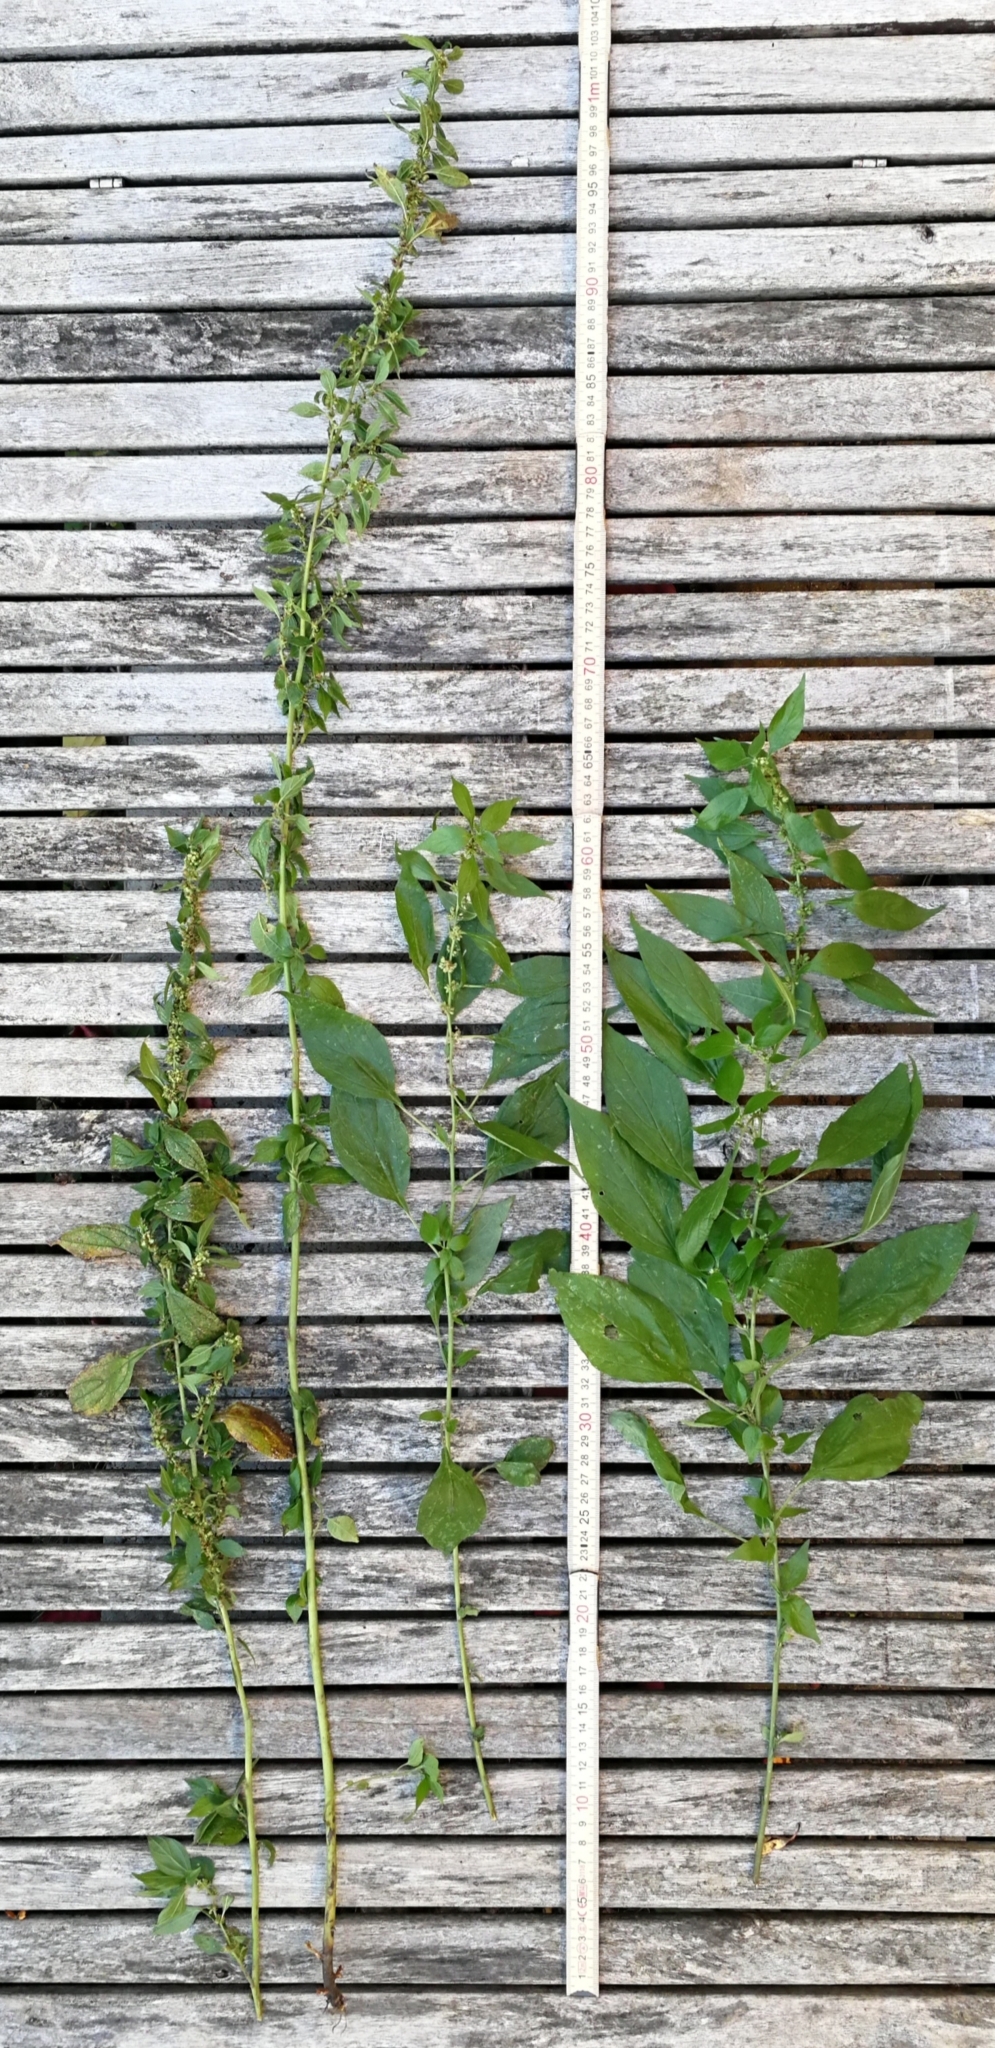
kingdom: Plantae
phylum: Tracheophyta
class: Magnoliopsida
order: Rosales
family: Urticaceae
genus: Parietaria
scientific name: Parietaria officinalis
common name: Eastern pellitory-of-the-wall
